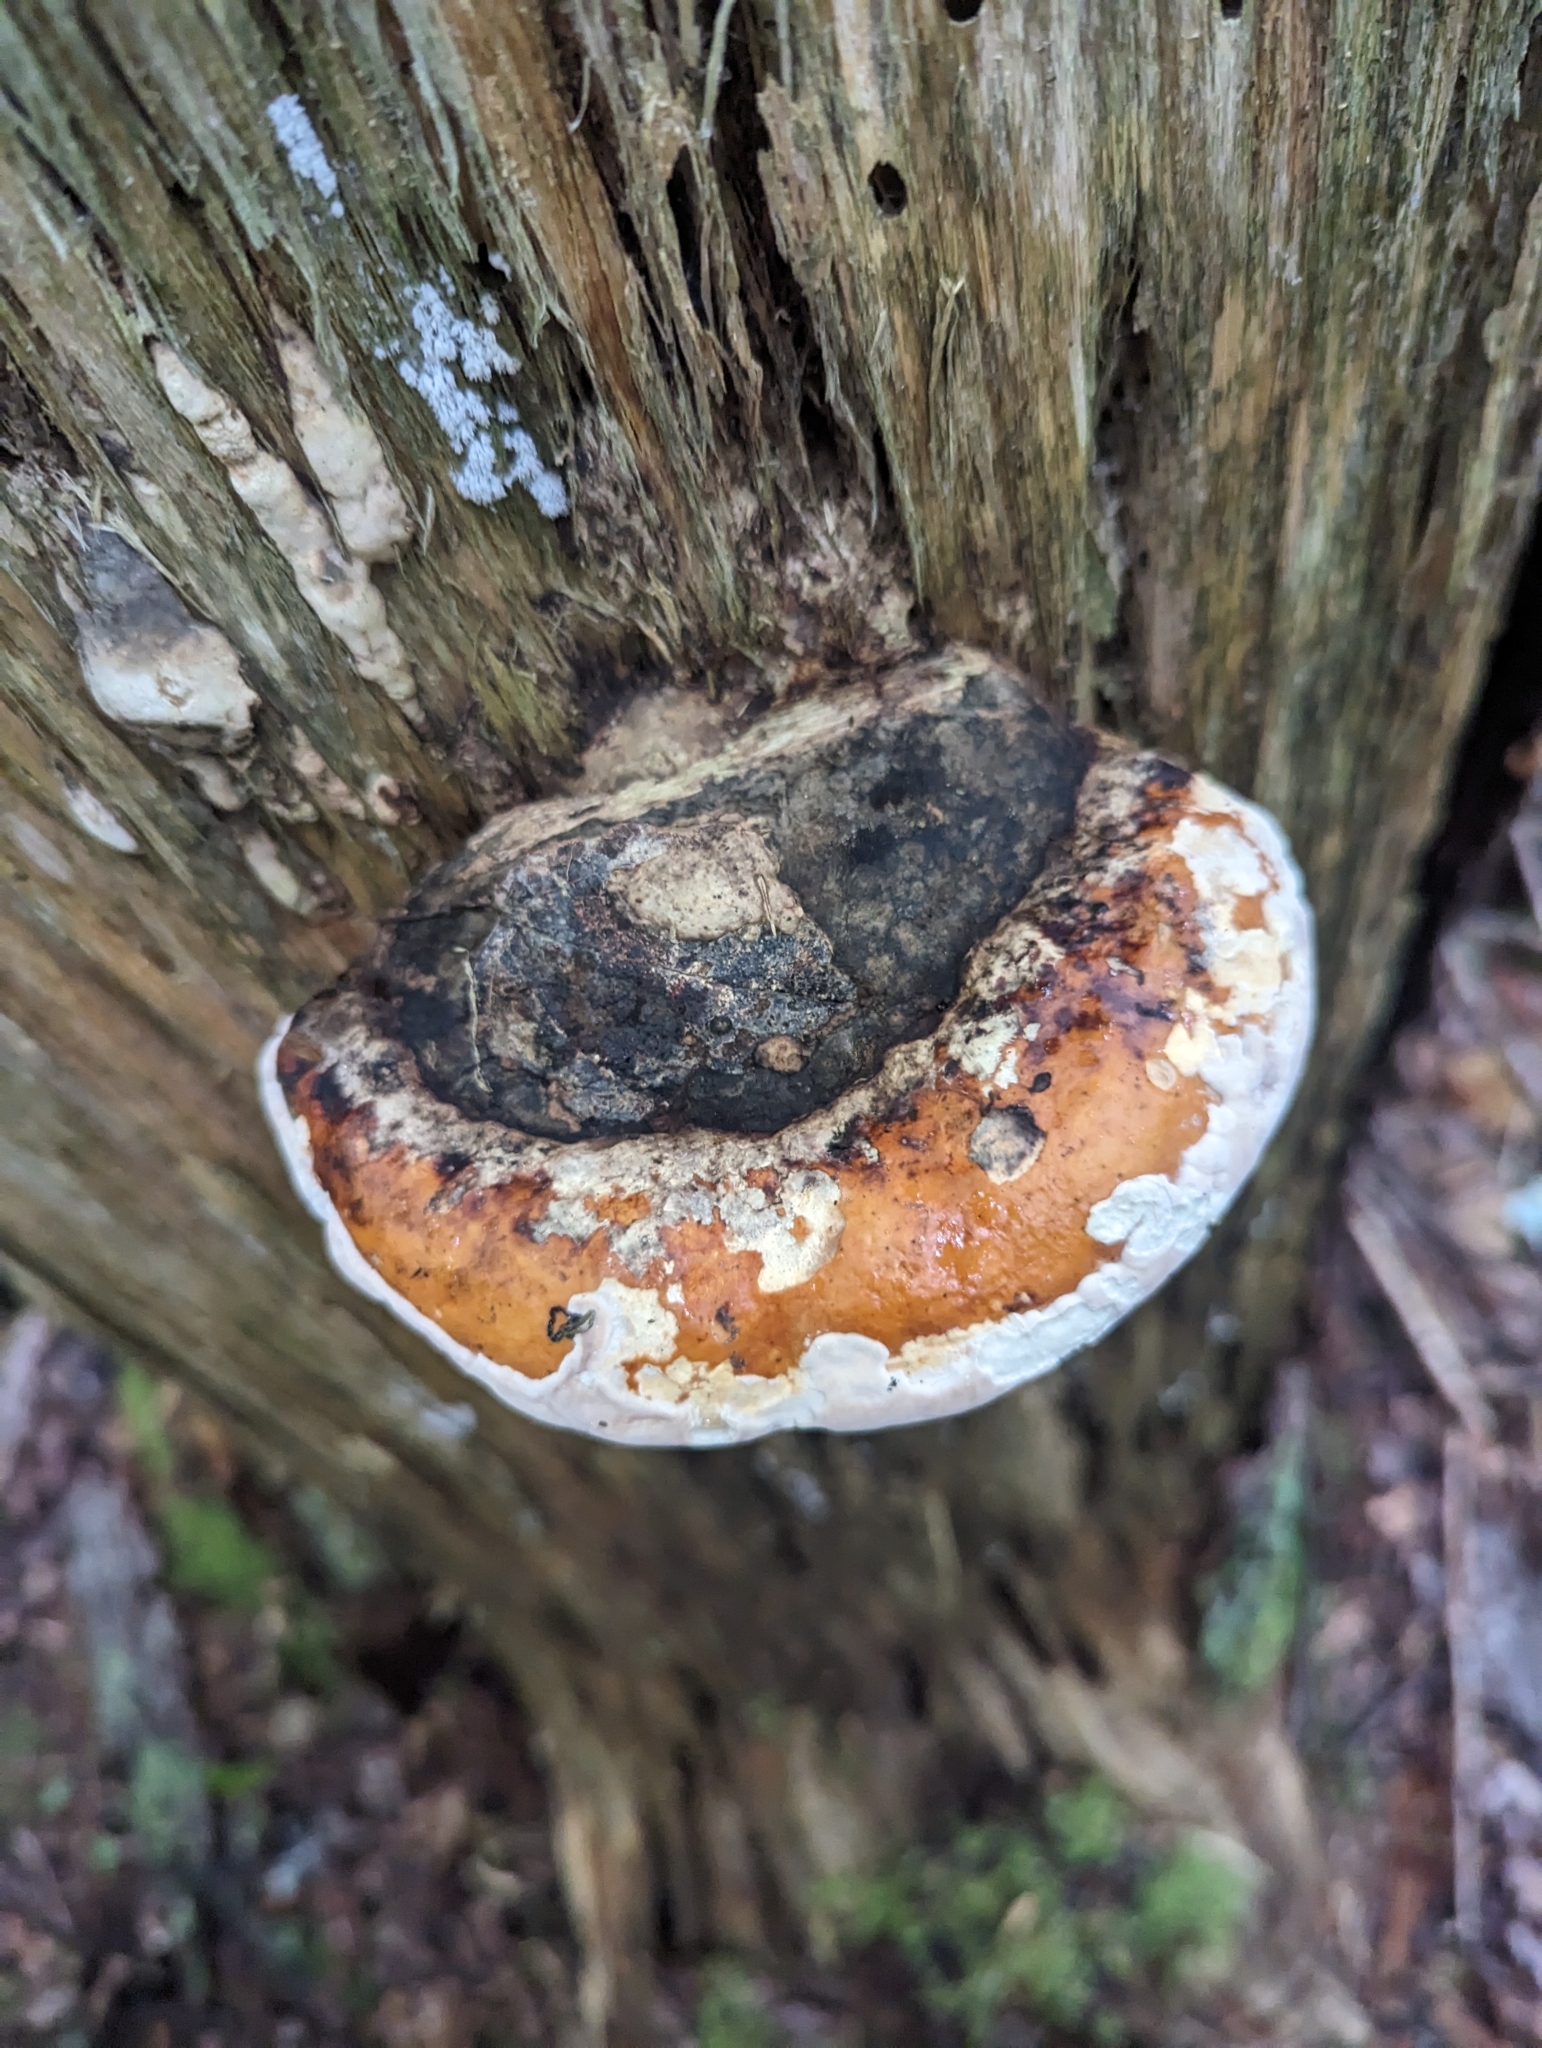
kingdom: Fungi
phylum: Basidiomycota
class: Agaricomycetes
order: Polyporales
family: Fomitopsidaceae
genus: Fomitopsis
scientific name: Fomitopsis mounceae
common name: Northern red belt
